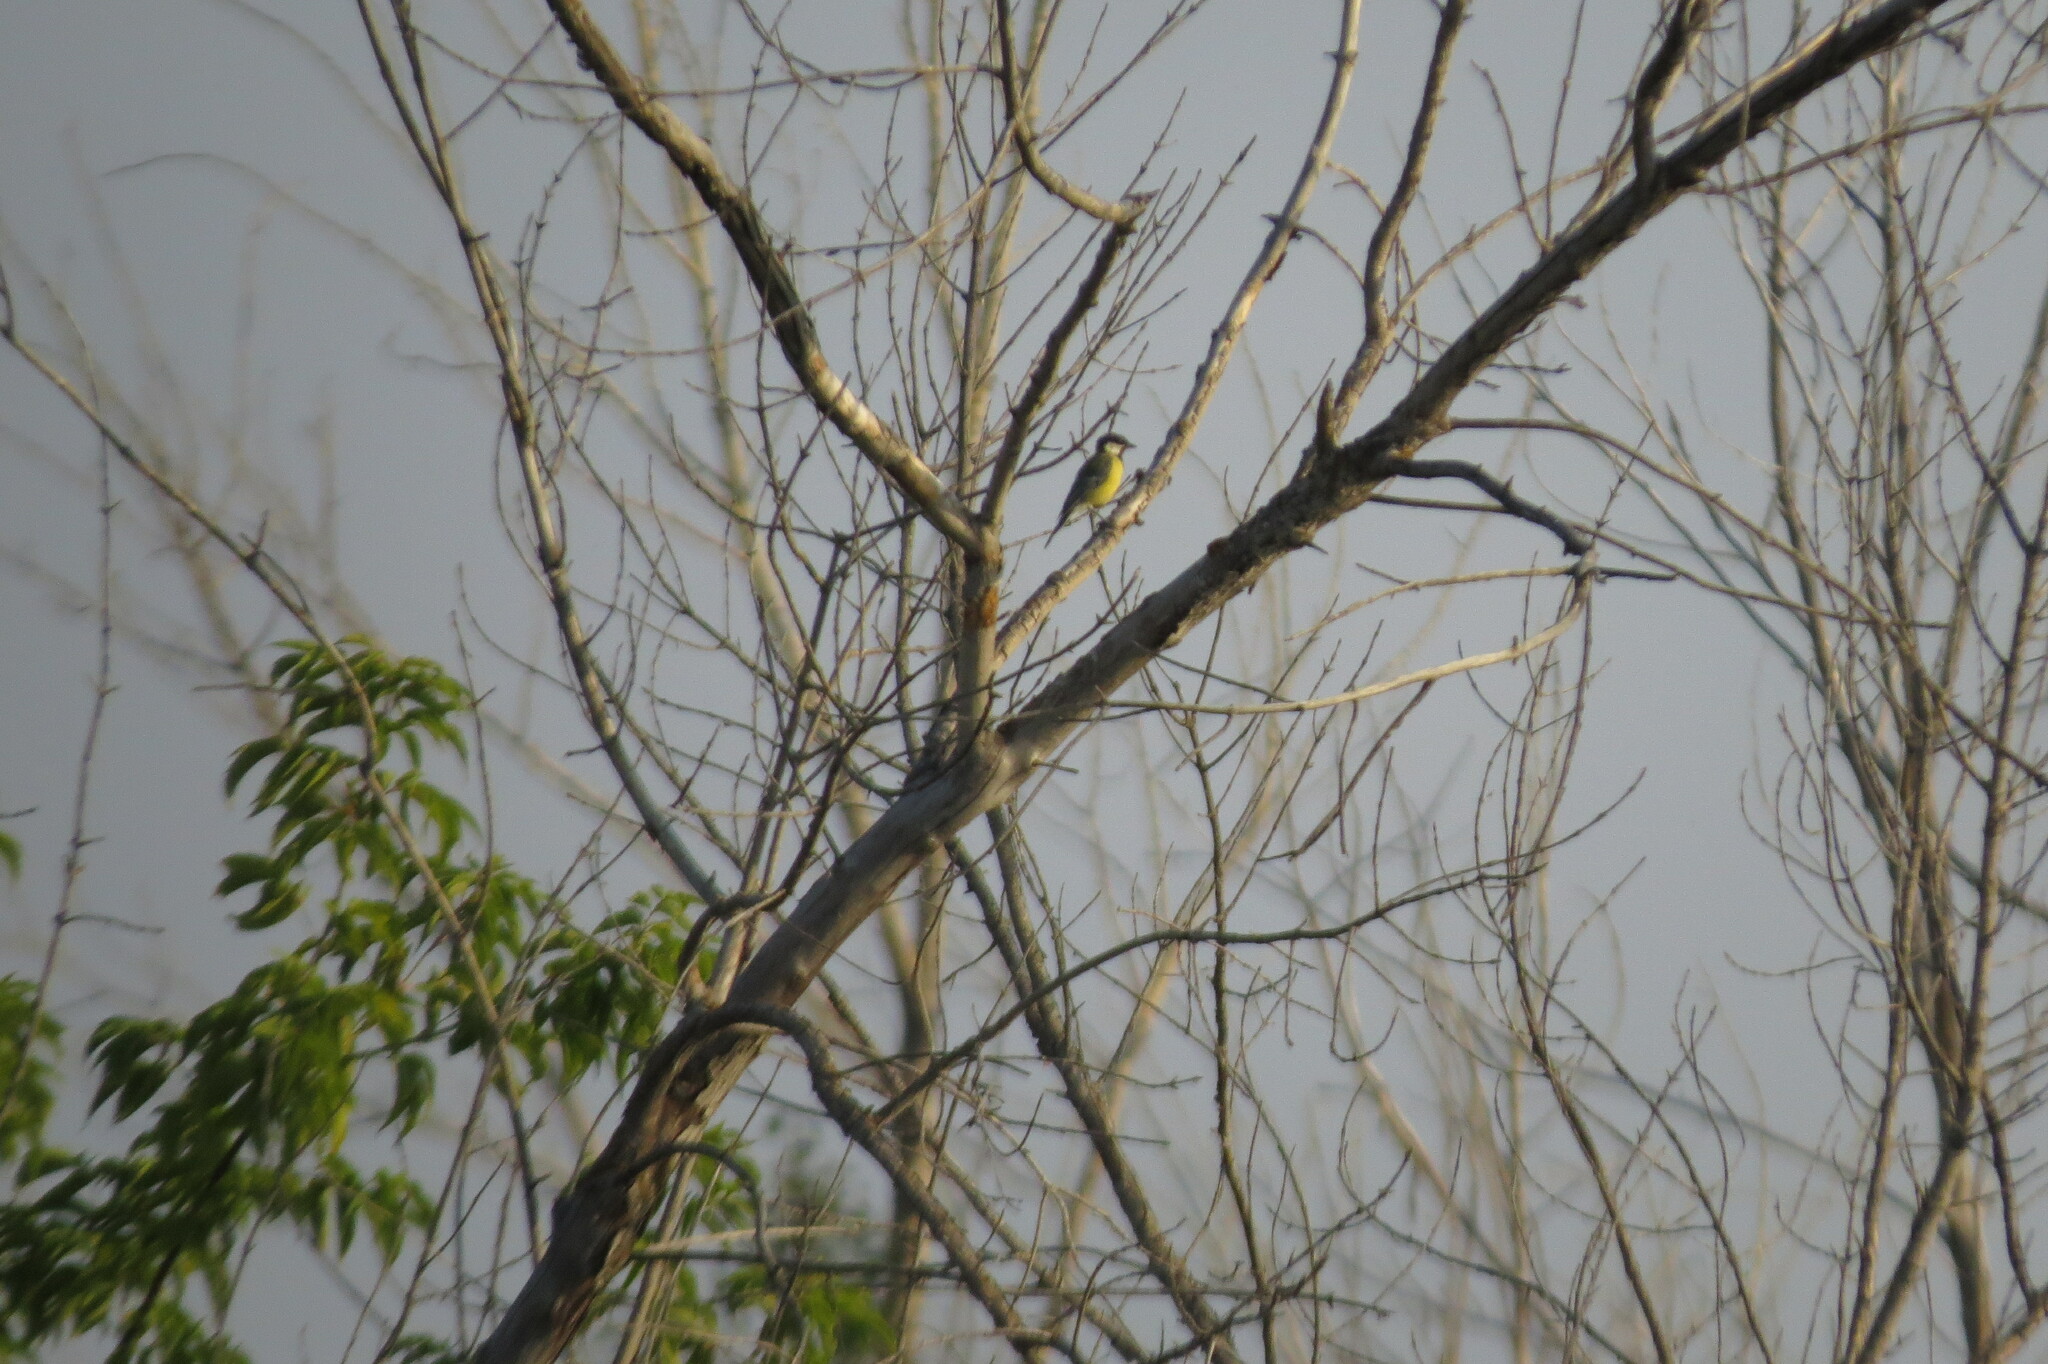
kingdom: Animalia
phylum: Chordata
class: Aves
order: Passeriformes
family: Paridae
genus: Parus
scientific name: Parus major
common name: Great tit
